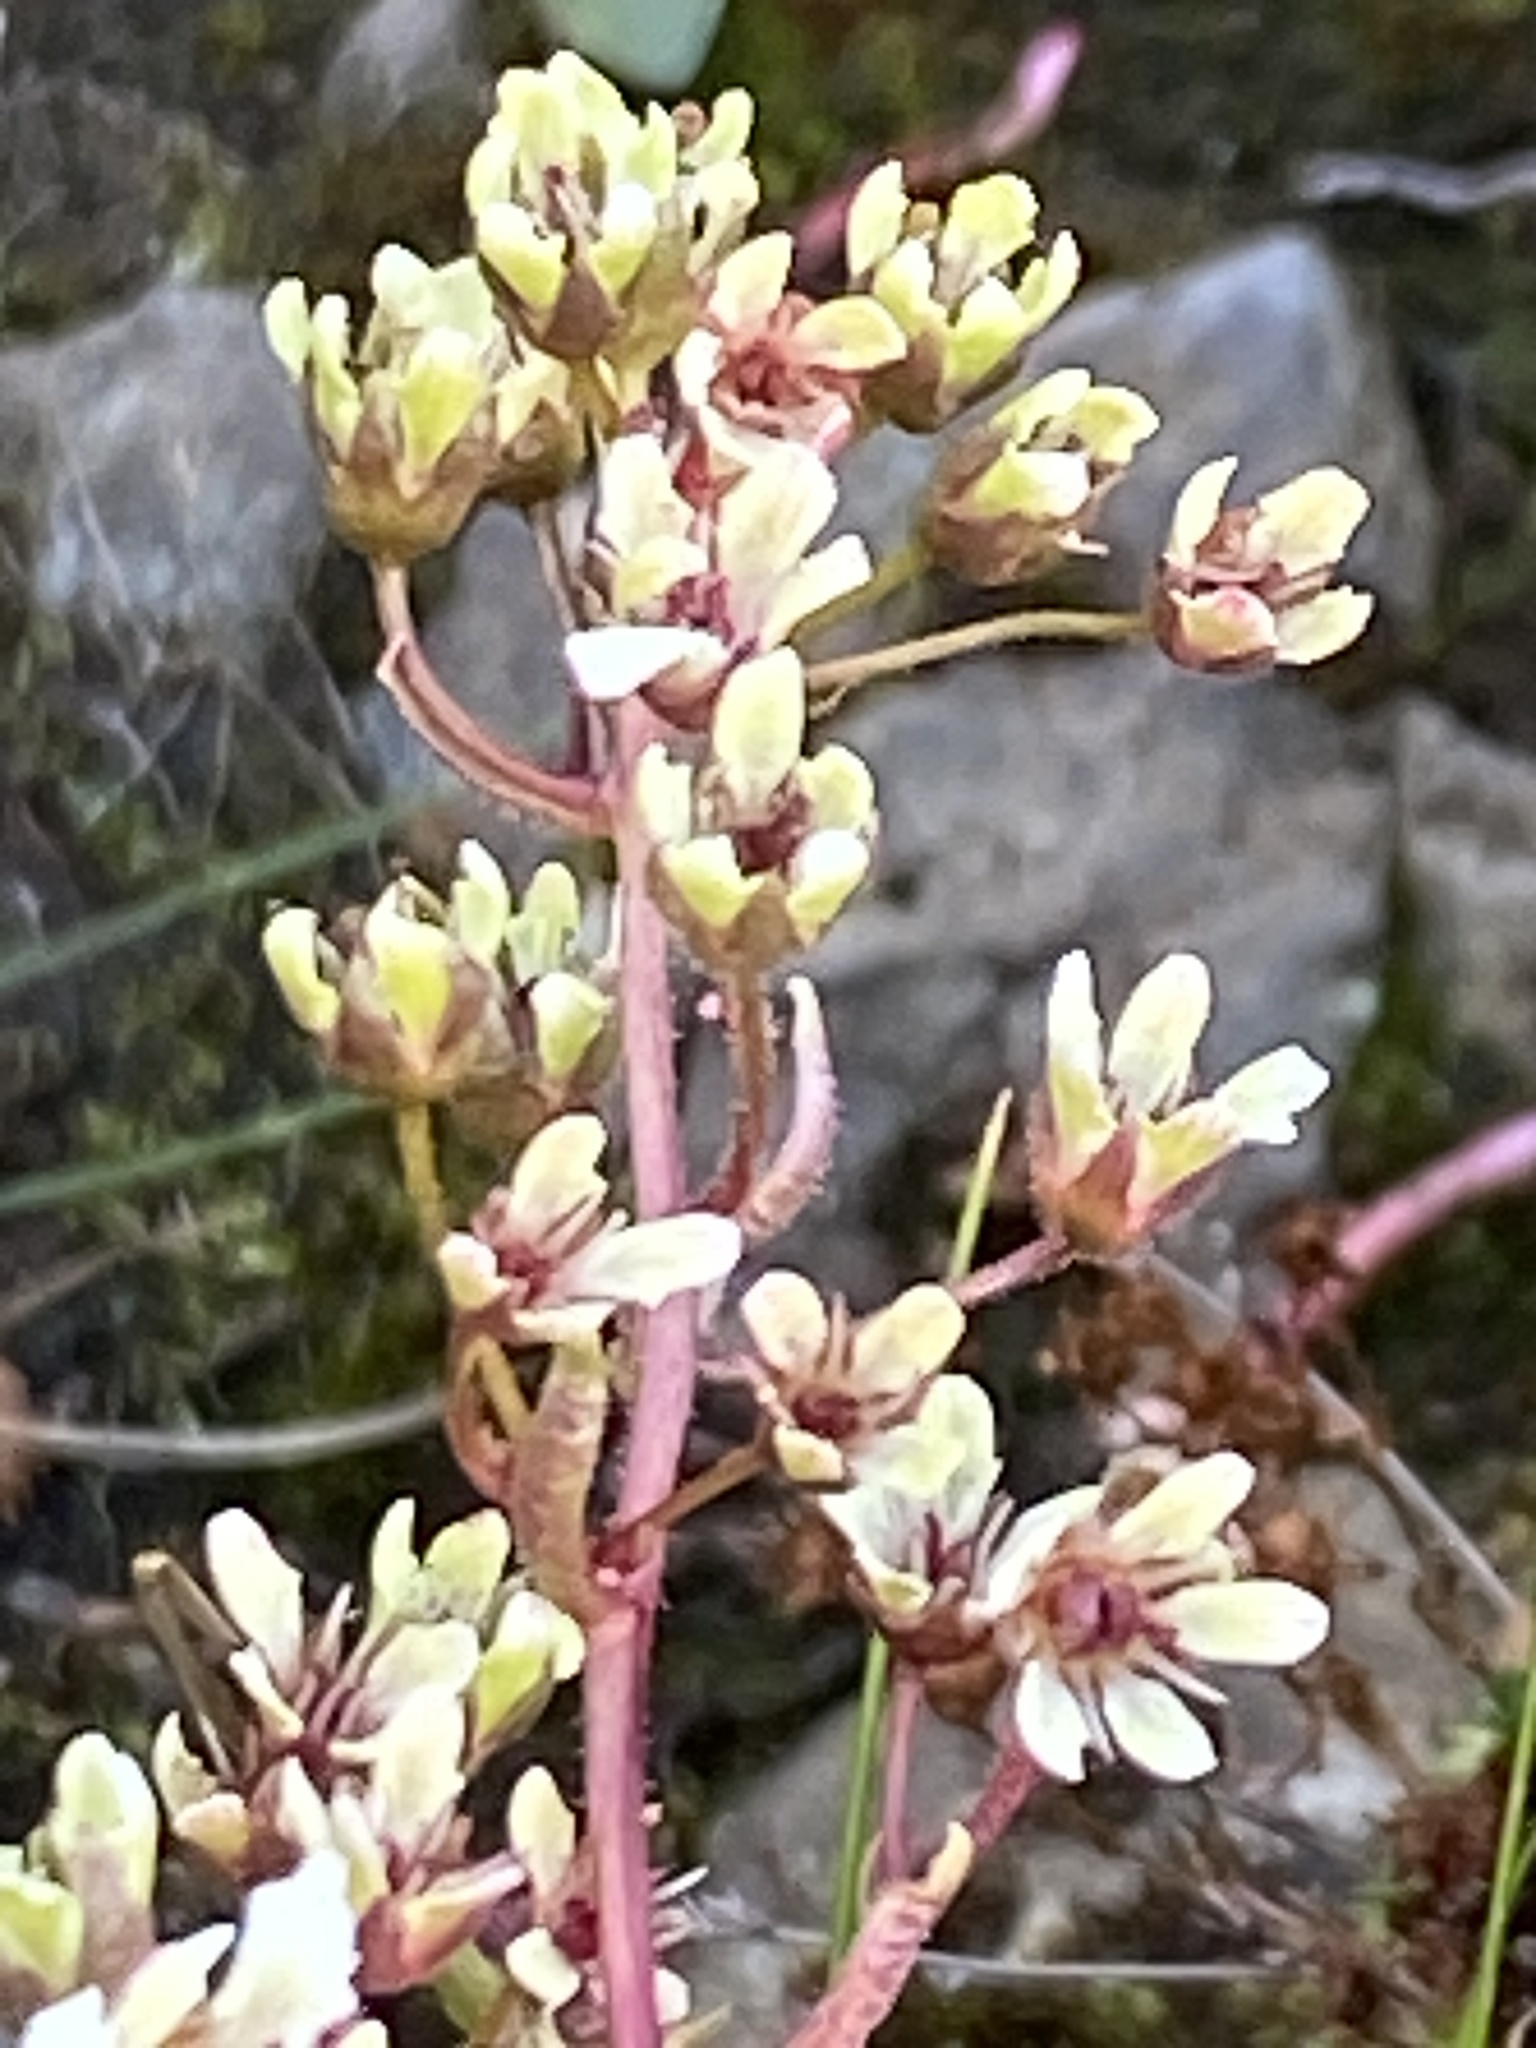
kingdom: Plantae
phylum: Tracheophyta
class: Magnoliopsida
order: Saxifragales
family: Saxifragaceae
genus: Saxifraga
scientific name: Saxifraga cotyledon
